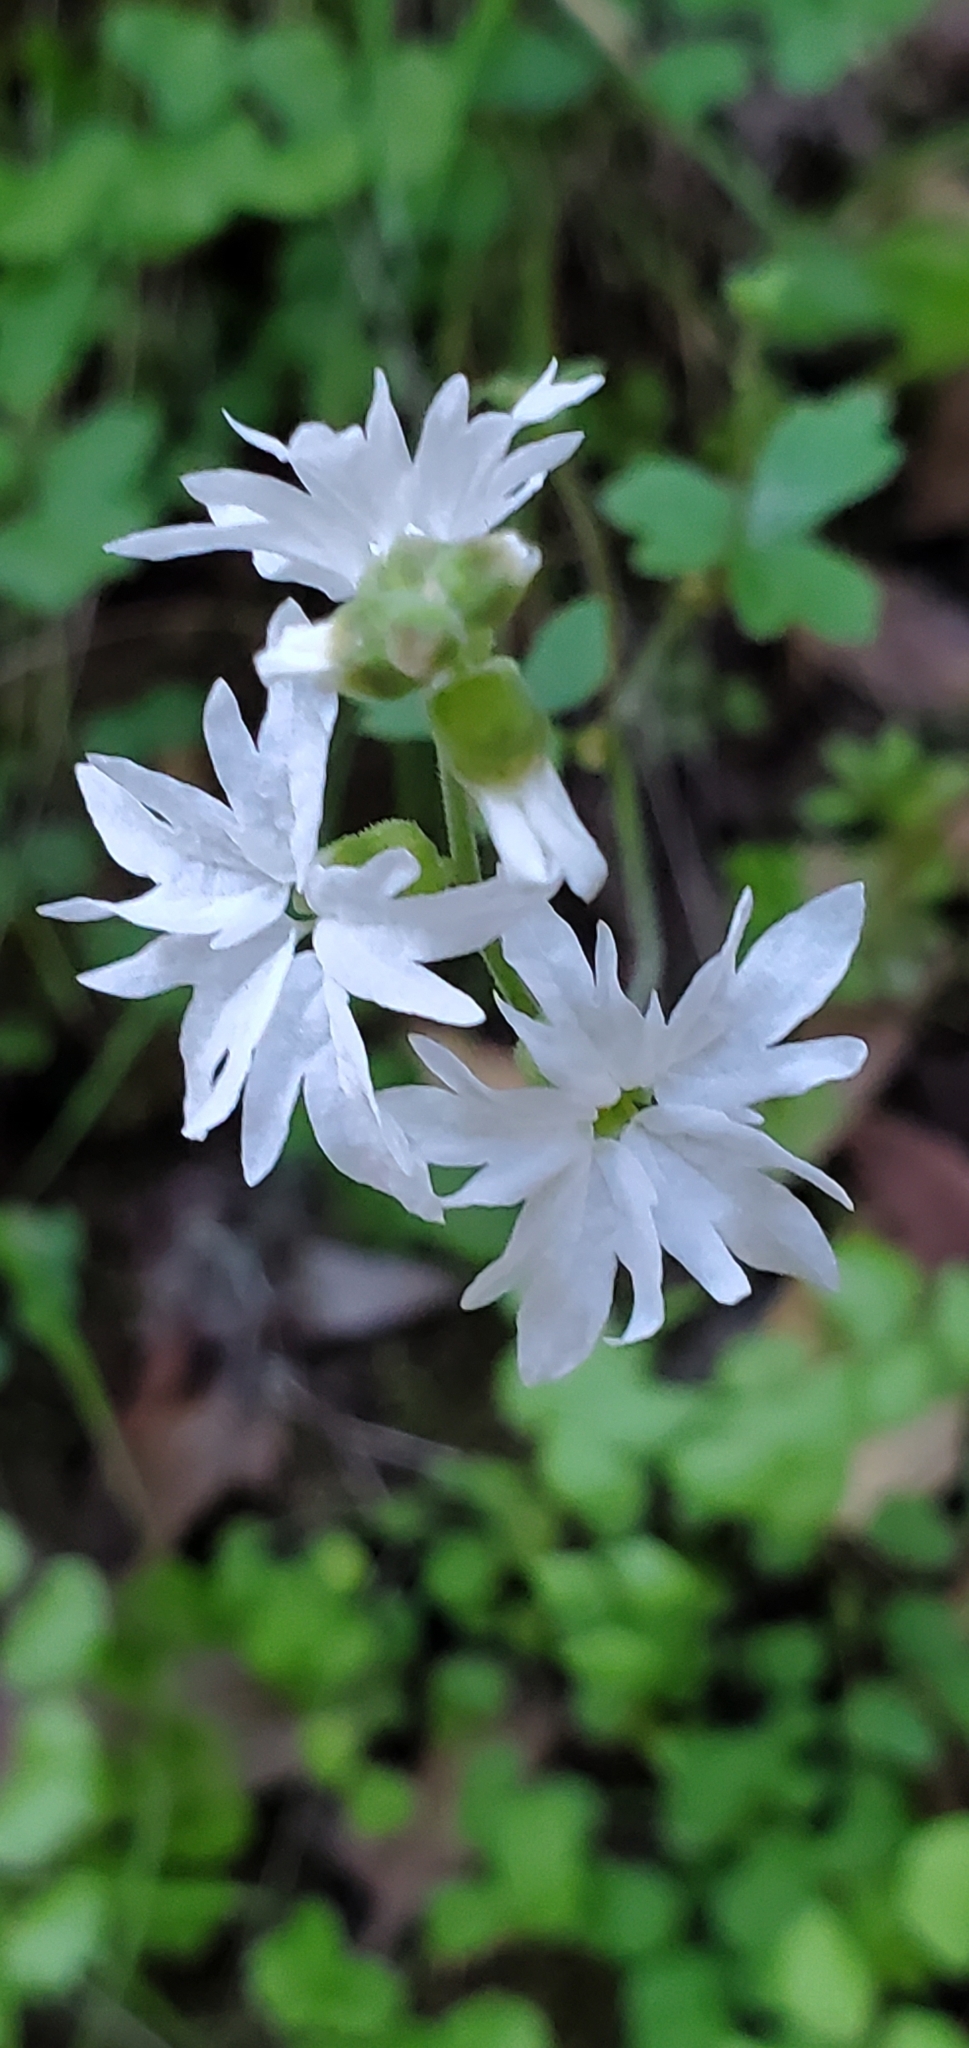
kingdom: Plantae
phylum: Tracheophyta
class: Magnoliopsida
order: Saxifragales
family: Saxifragaceae
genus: Lithophragma
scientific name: Lithophragma heterophyllum
